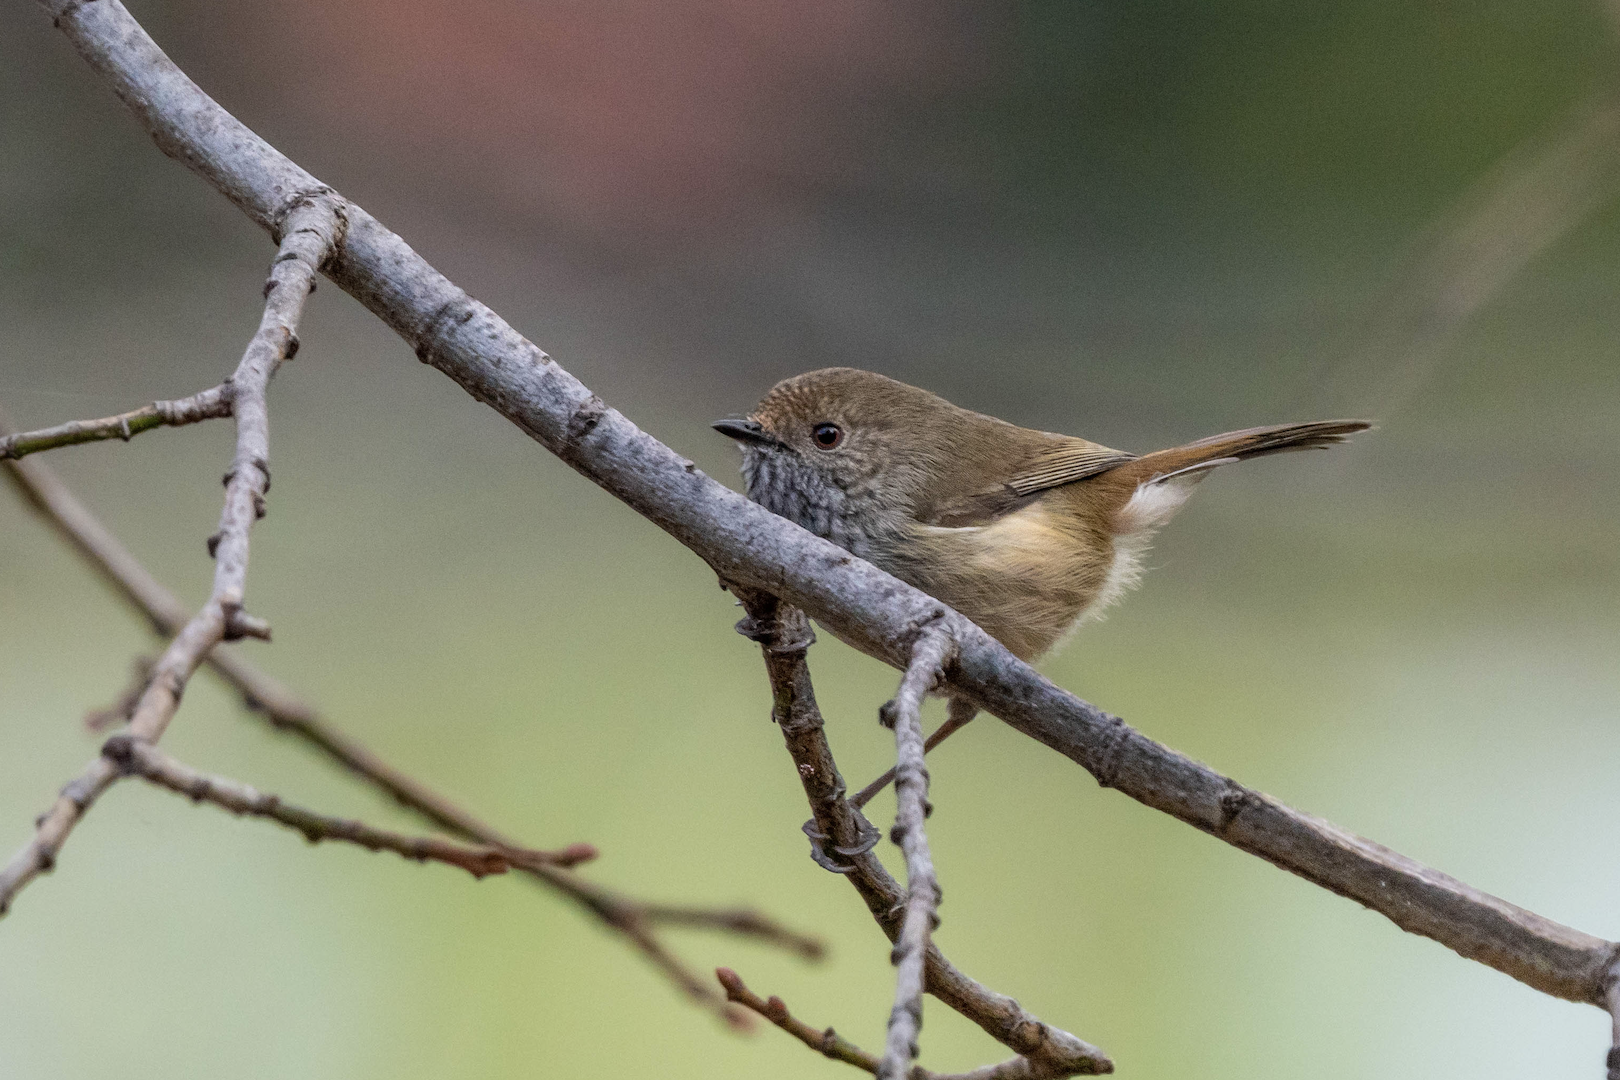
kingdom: Animalia
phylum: Chordata
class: Aves
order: Passeriformes
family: Acanthizidae
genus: Acanthiza
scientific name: Acanthiza pusilla
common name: Brown thornbill
